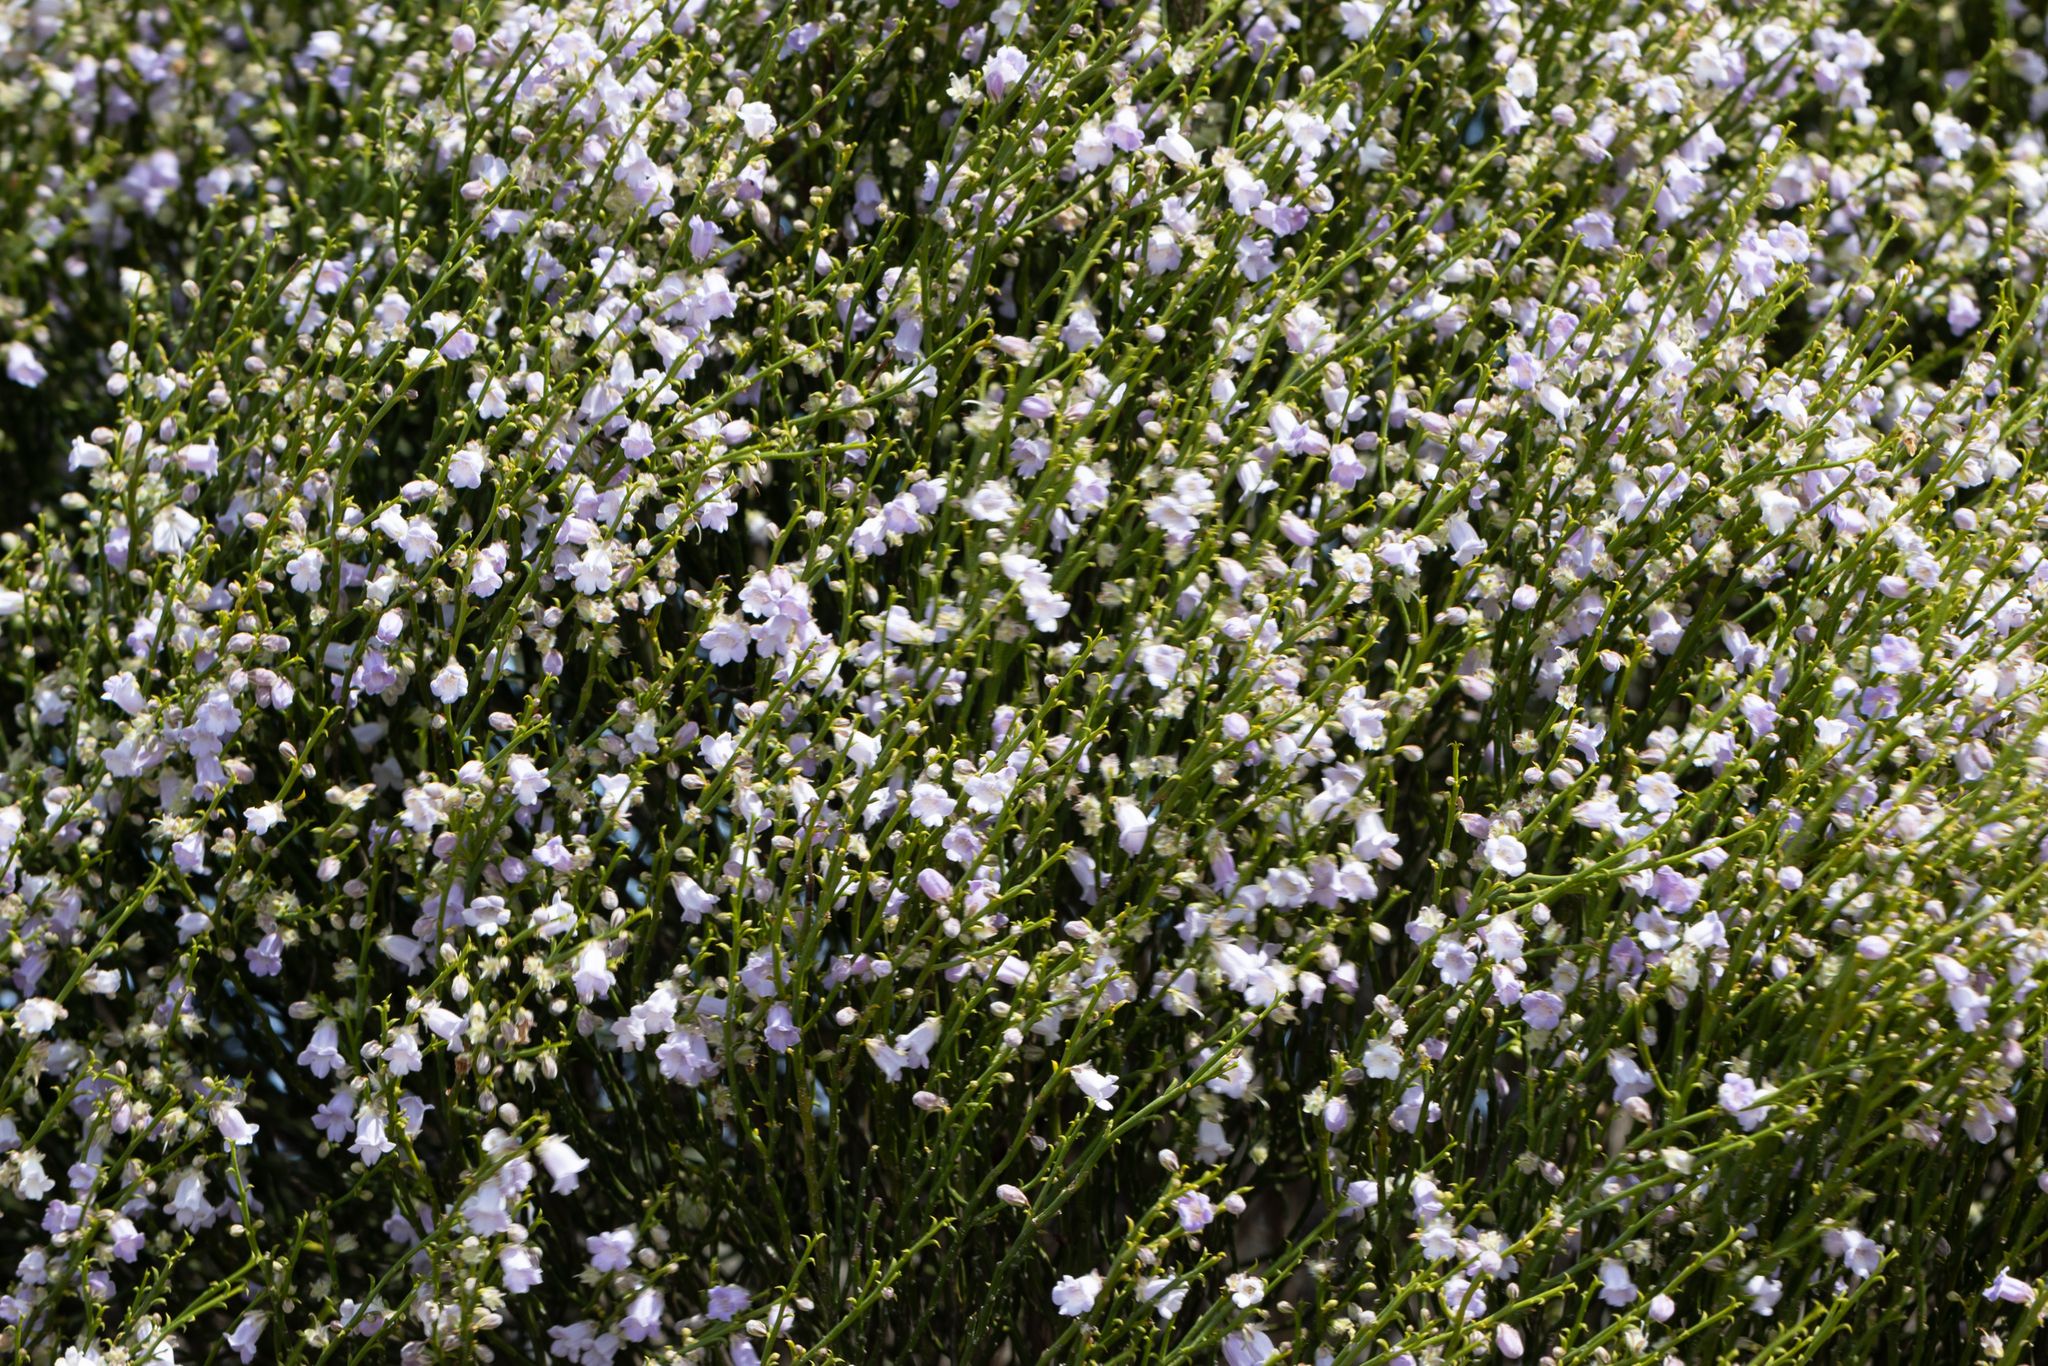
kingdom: Plantae
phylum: Tracheophyta
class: Magnoliopsida
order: Lamiales
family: Scrophulariaceae
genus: Eremophila
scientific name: Eremophila dempsteri
